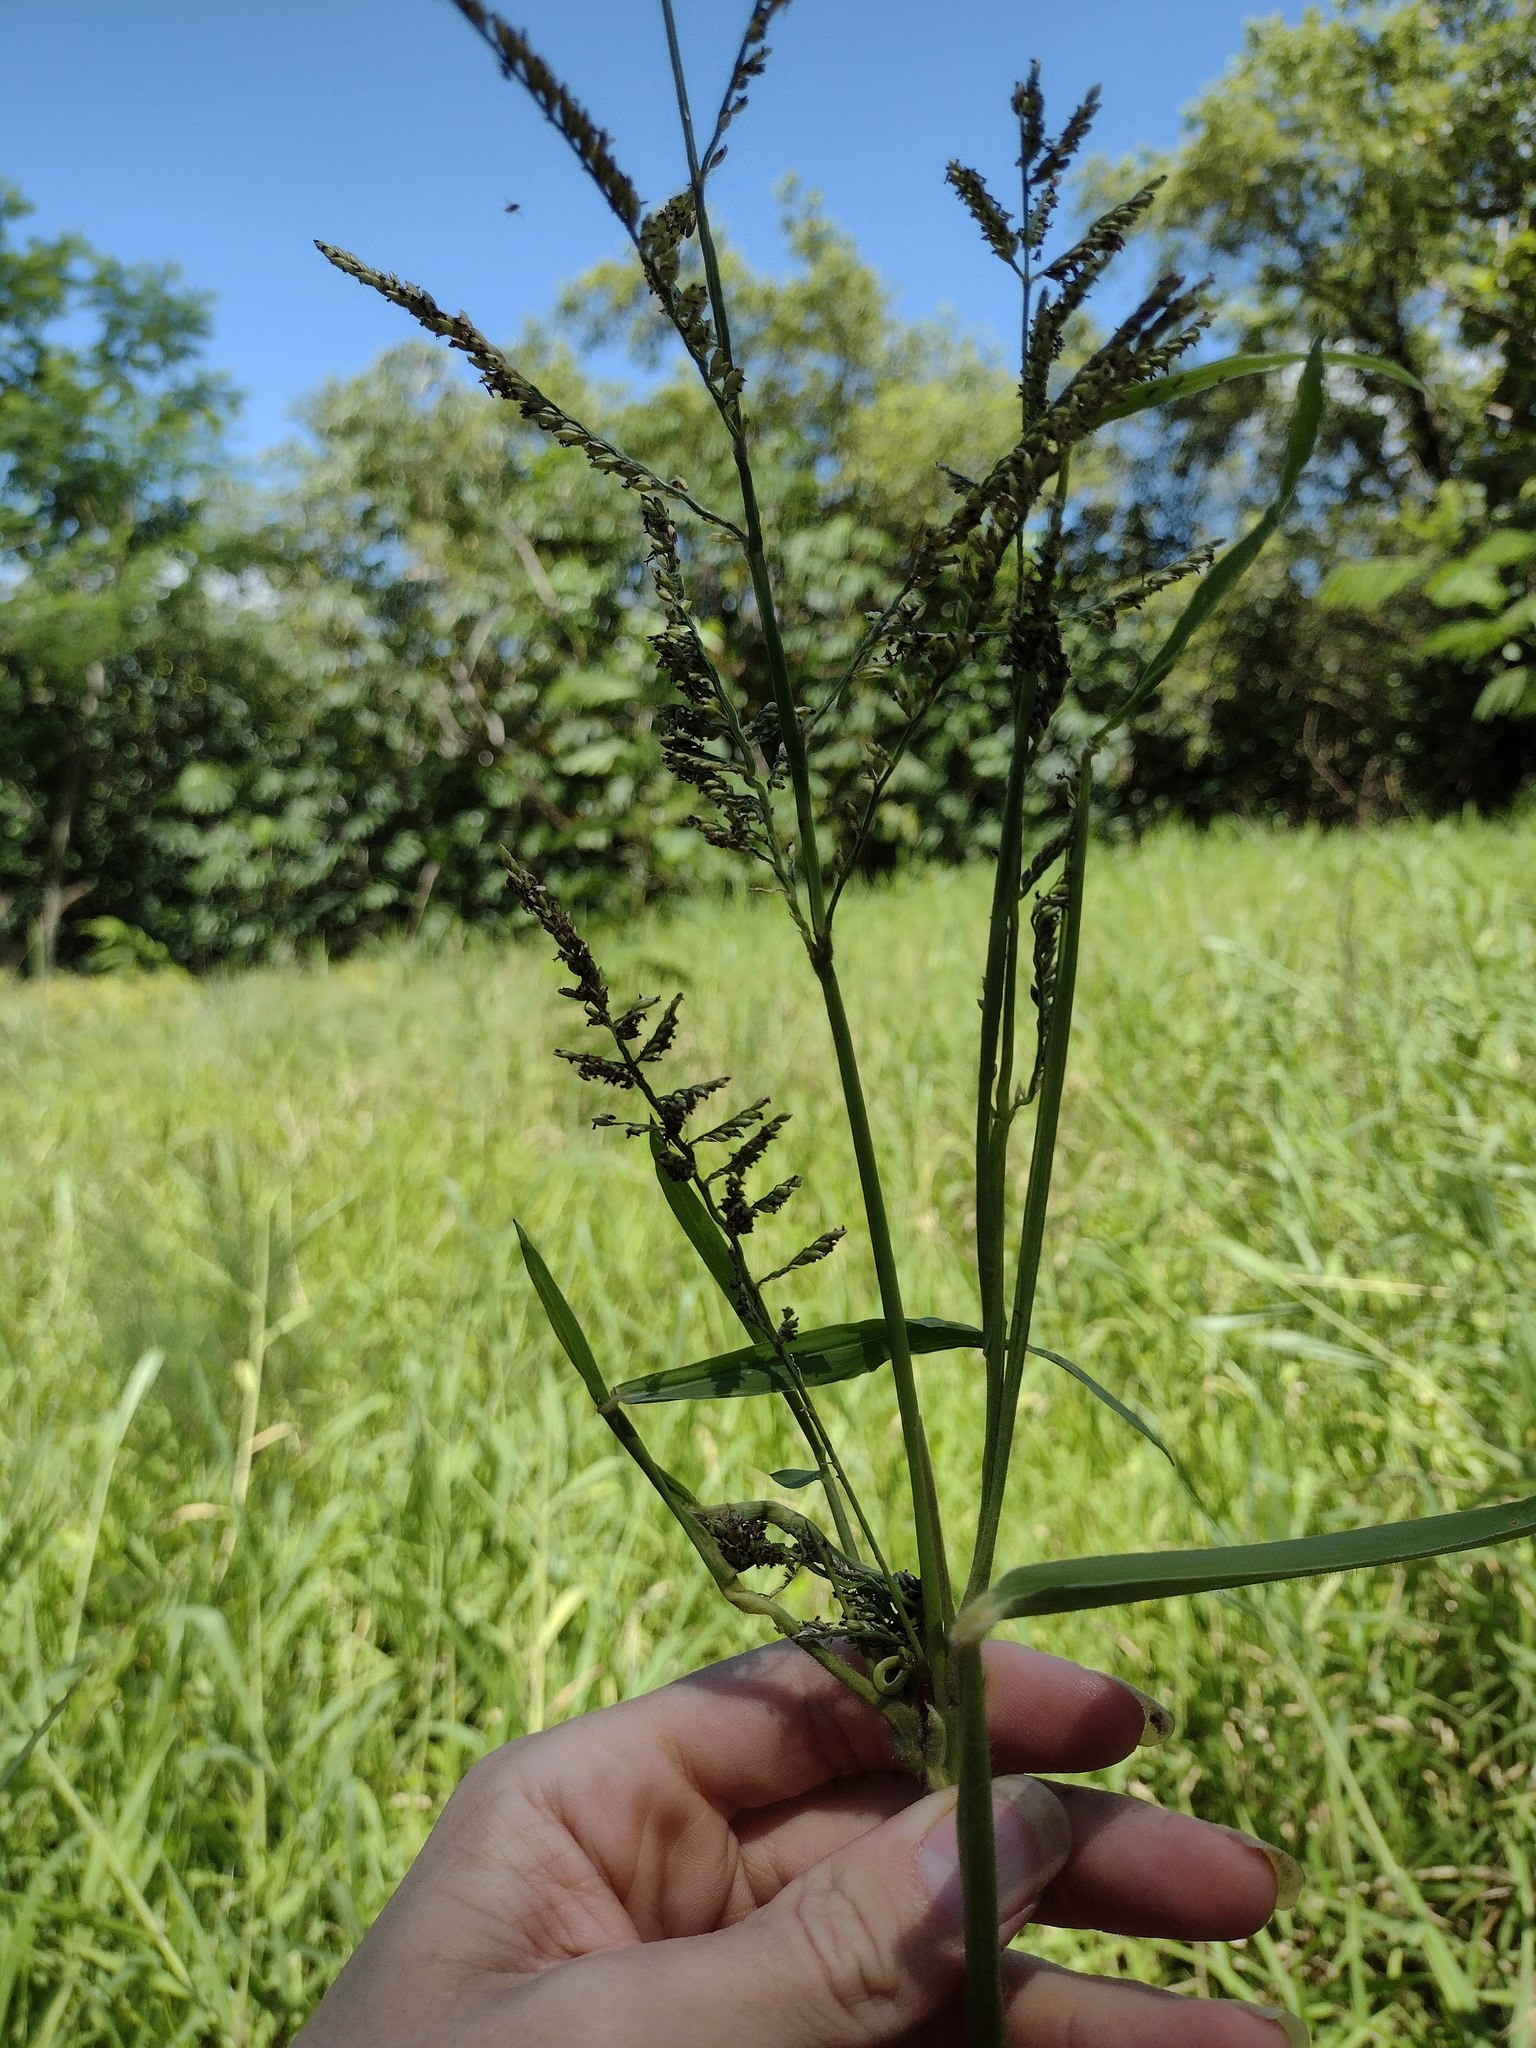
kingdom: Plantae
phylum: Tracheophyta
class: Liliopsida
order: Poales
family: Poaceae
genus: Urochloa
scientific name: Urochloa mutica
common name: Para grass
